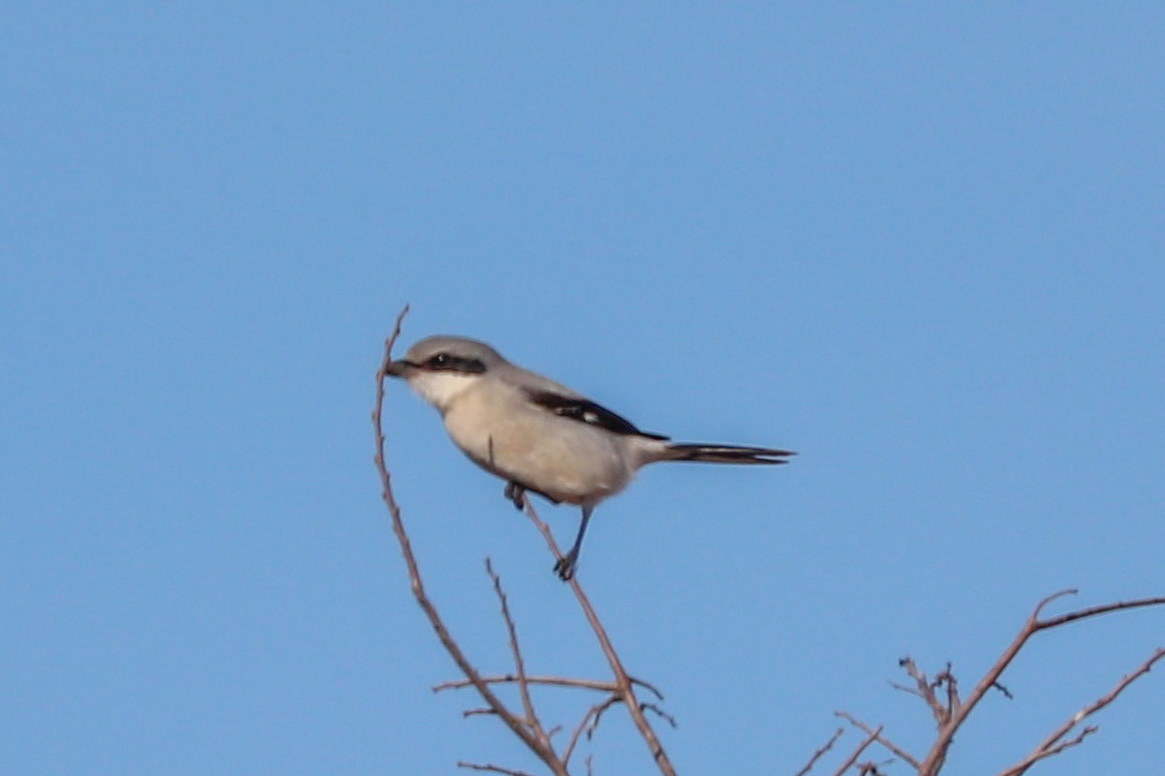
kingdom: Animalia
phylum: Chordata
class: Aves
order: Passeriformes
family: Laniidae
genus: Lanius
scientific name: Lanius ludovicianus
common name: Loggerhead shrike
